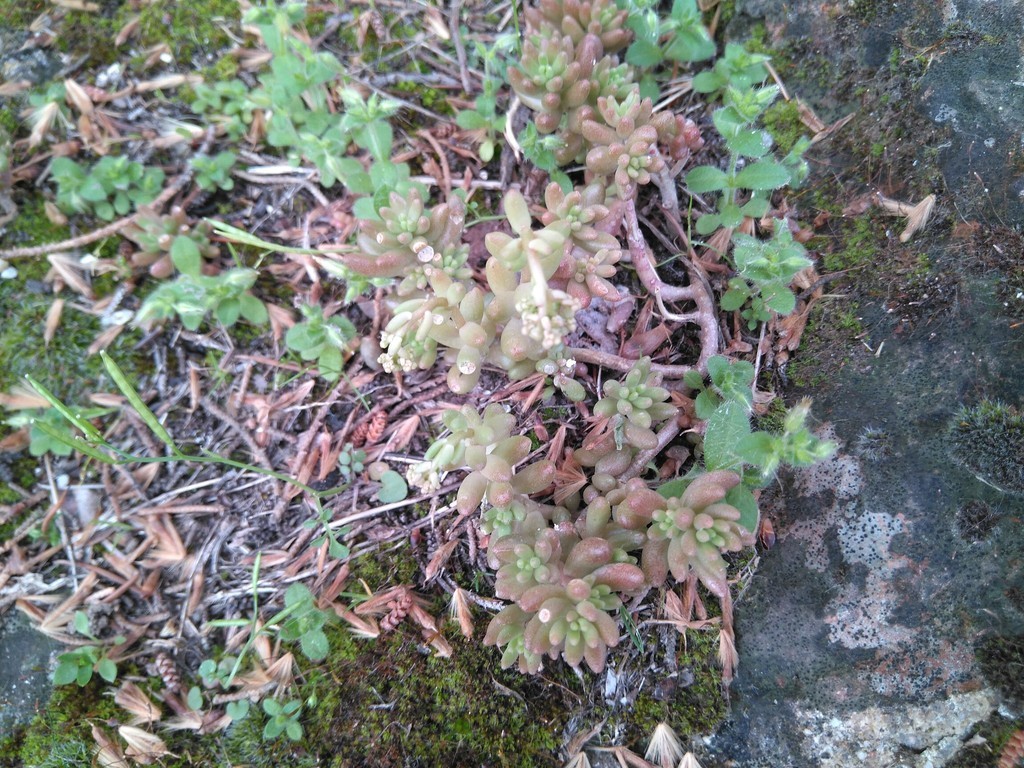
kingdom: Plantae
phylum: Tracheophyta
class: Magnoliopsida
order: Saxifragales
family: Crassulaceae
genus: Sedum
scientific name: Sedum album
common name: White stonecrop
